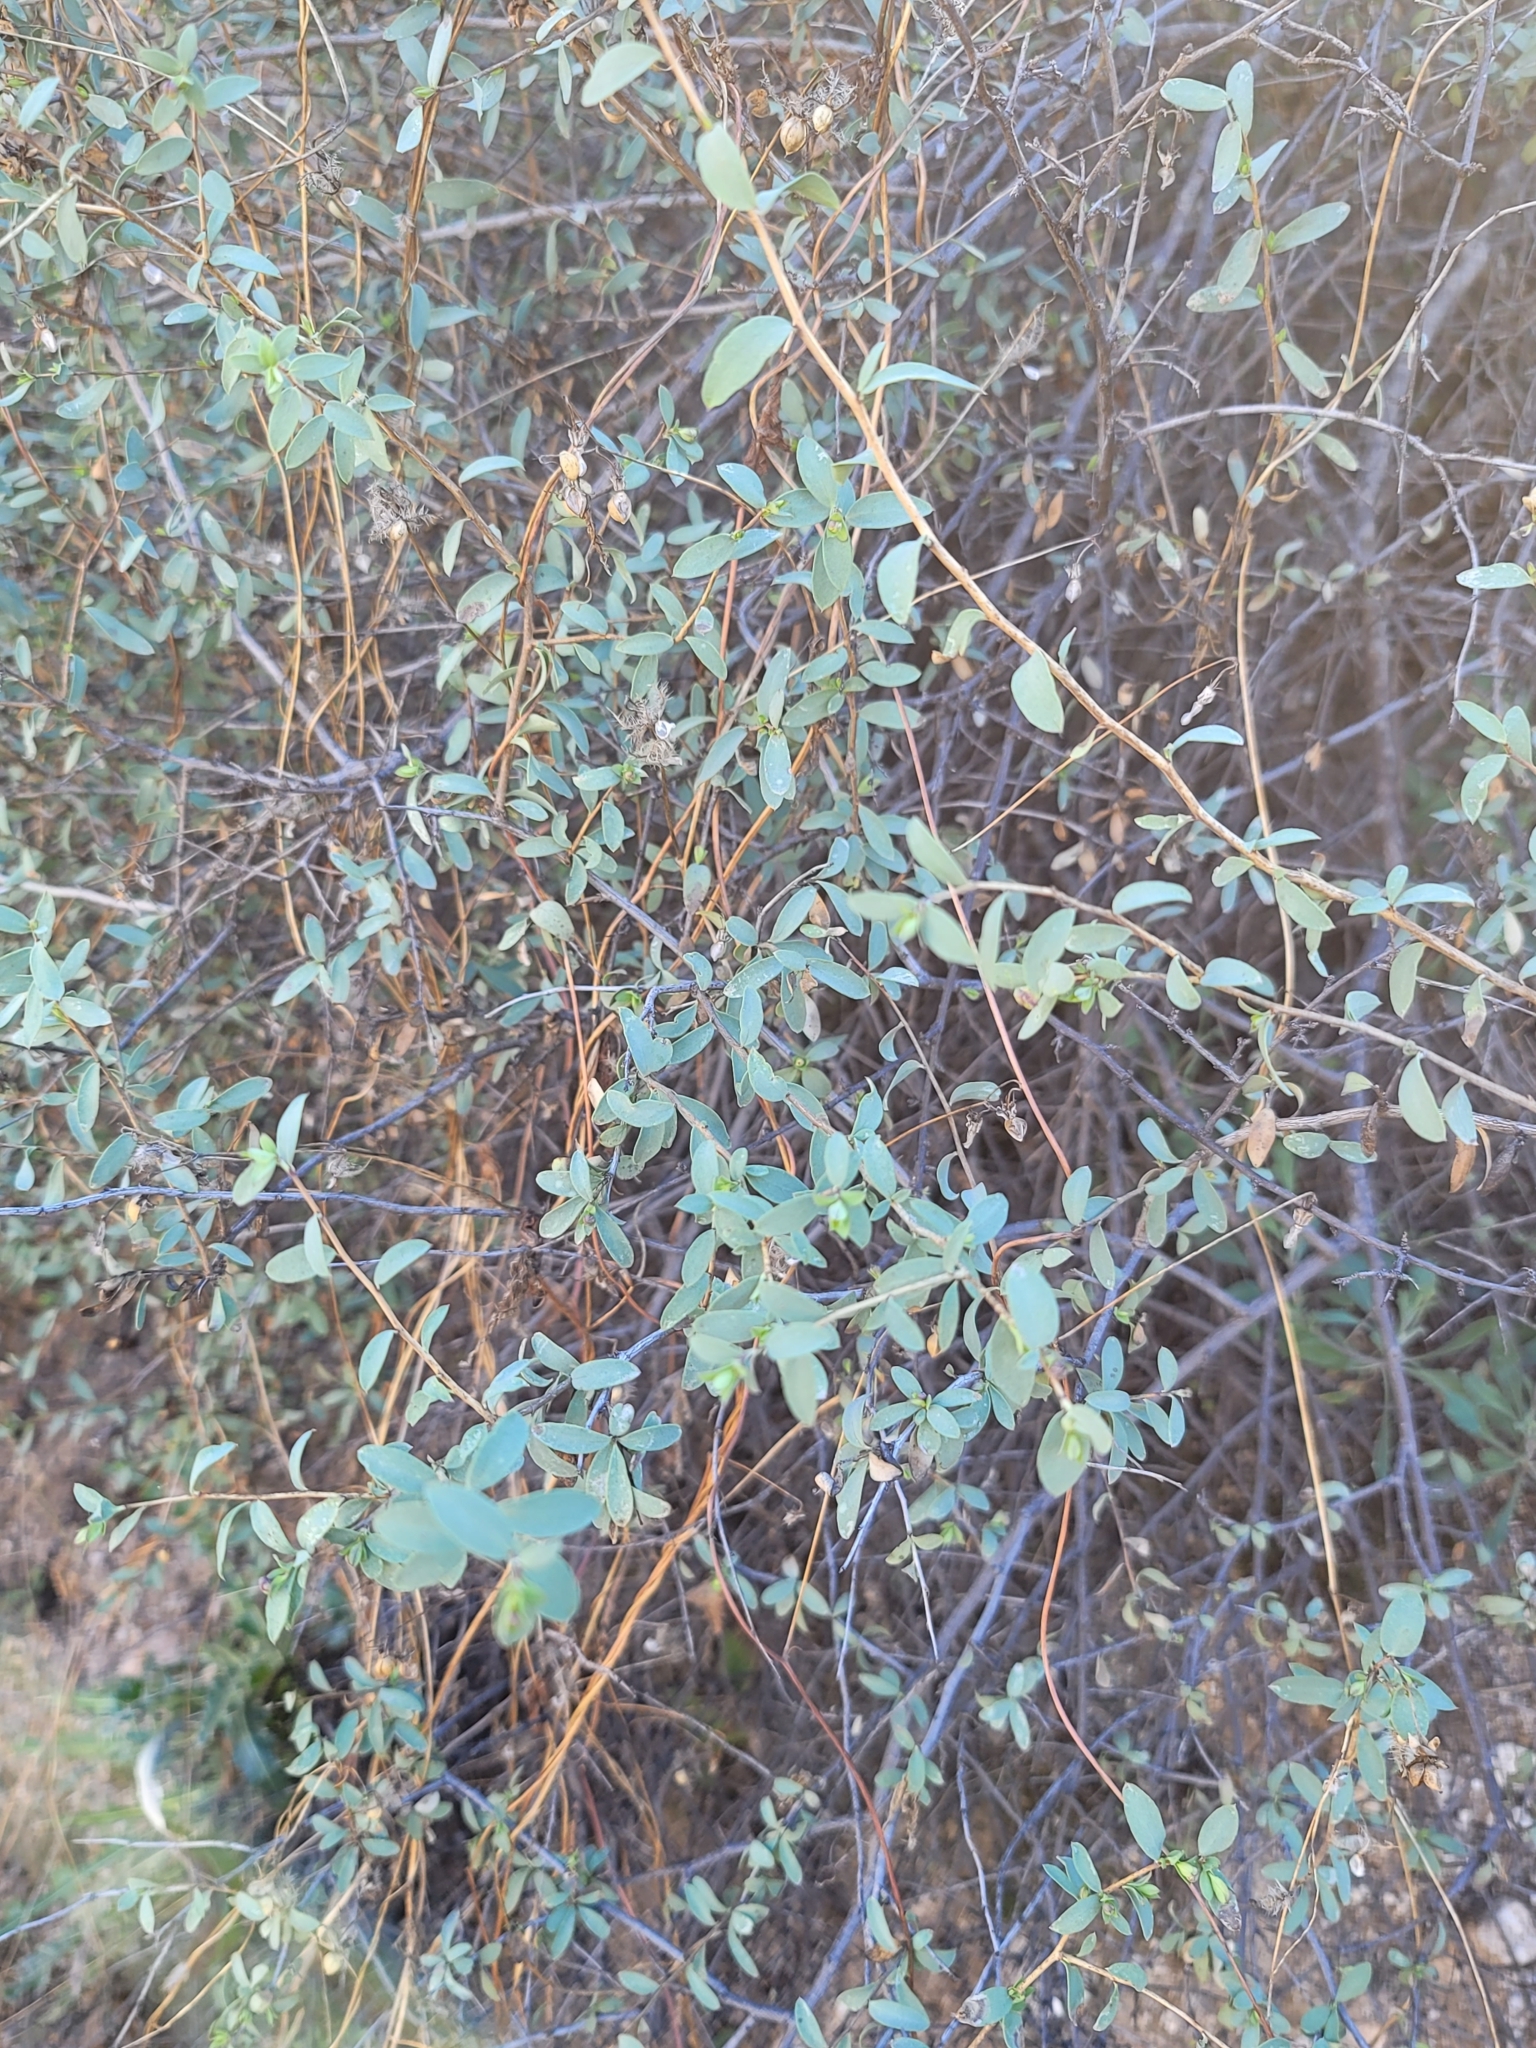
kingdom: Plantae
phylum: Tracheophyta
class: Magnoliopsida
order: Crossosomatales
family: Crossosomataceae
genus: Crossosoma
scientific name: Crossosoma bigelovii
